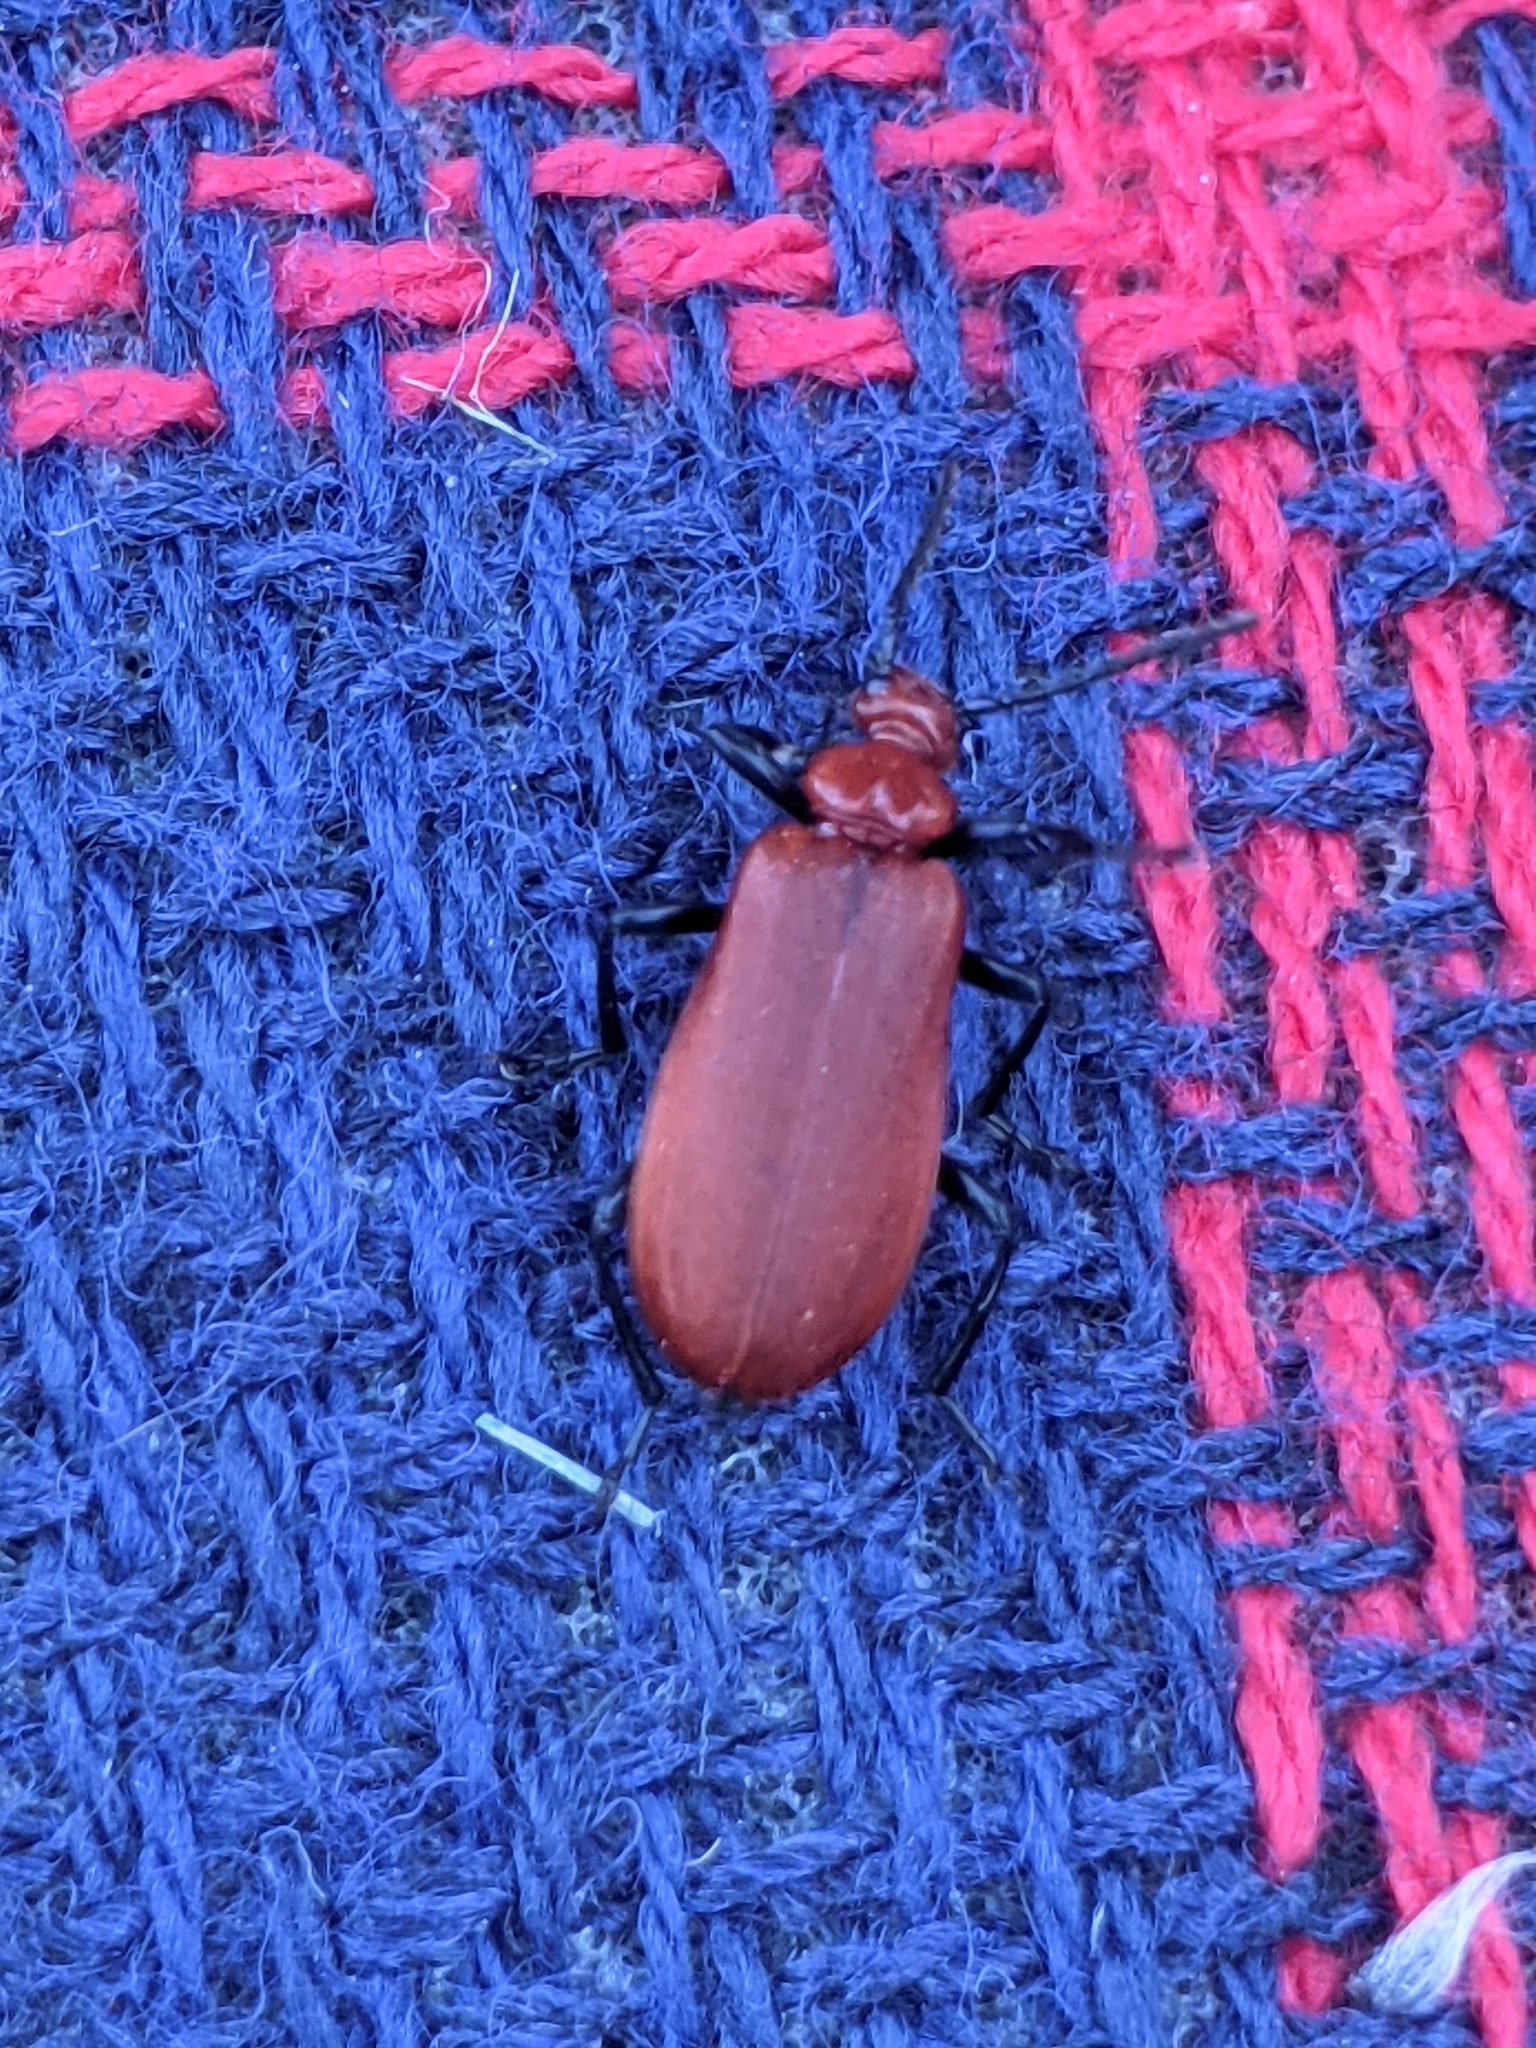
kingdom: Animalia
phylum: Arthropoda
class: Insecta
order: Coleoptera
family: Pyrochroidae
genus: Pyrochroa
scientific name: Pyrochroa serraticornis
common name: Red-headed cardinal beetle
